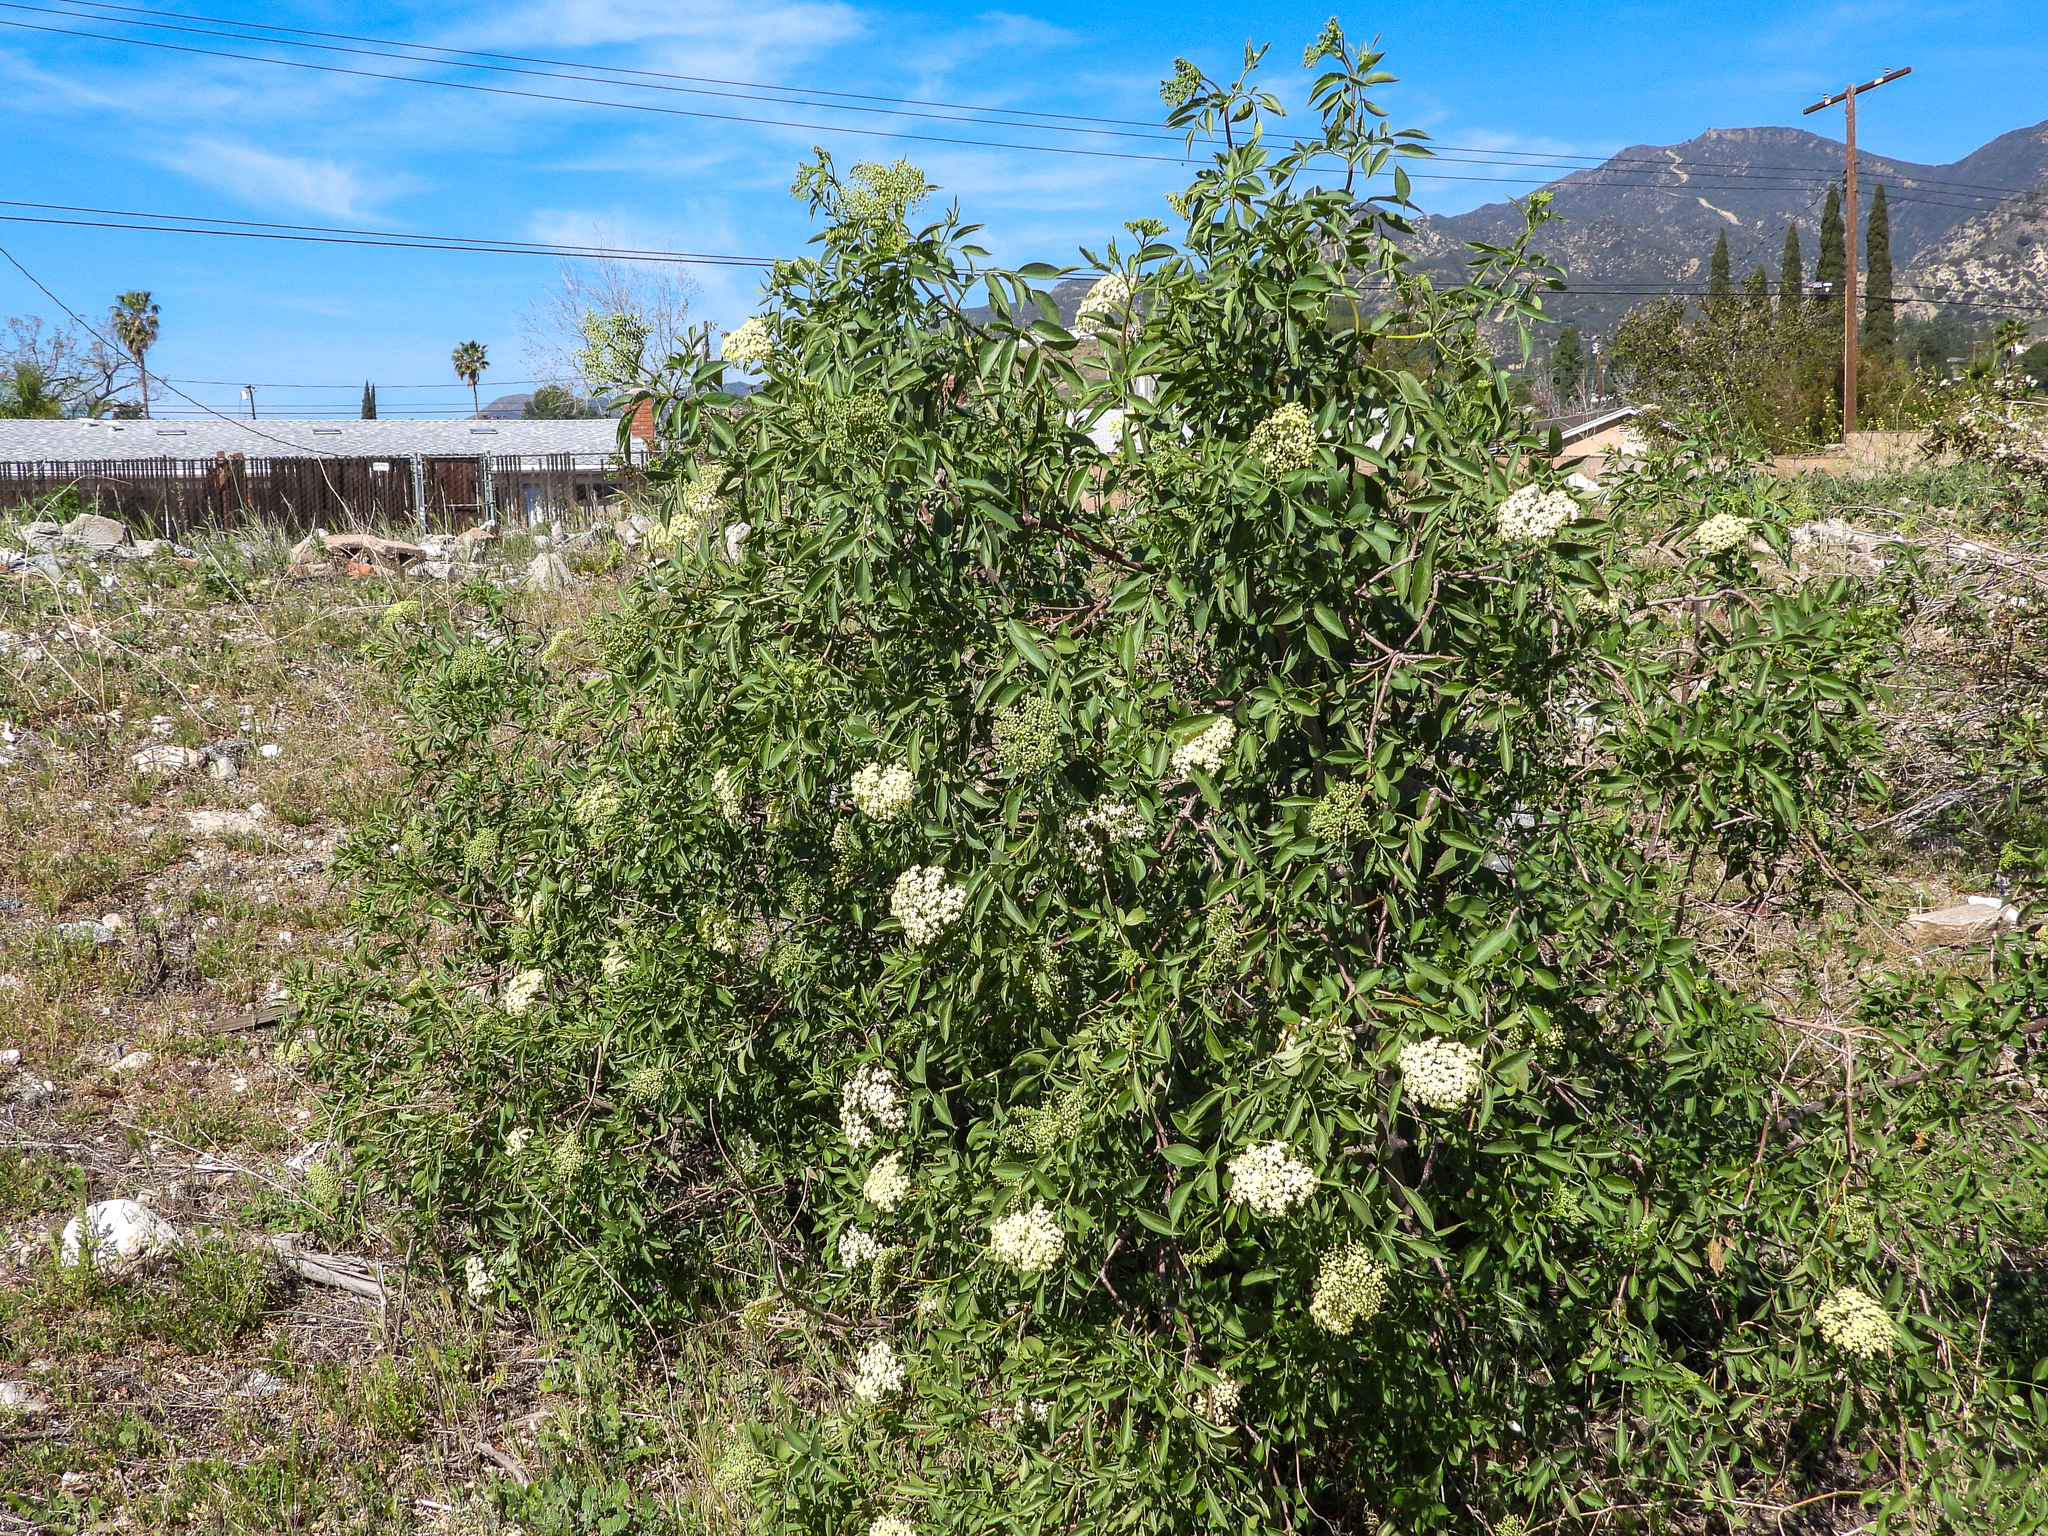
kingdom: Plantae
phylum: Tracheophyta
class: Magnoliopsida
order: Dipsacales
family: Viburnaceae
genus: Sambucus
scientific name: Sambucus cerulea
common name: Blue elder
